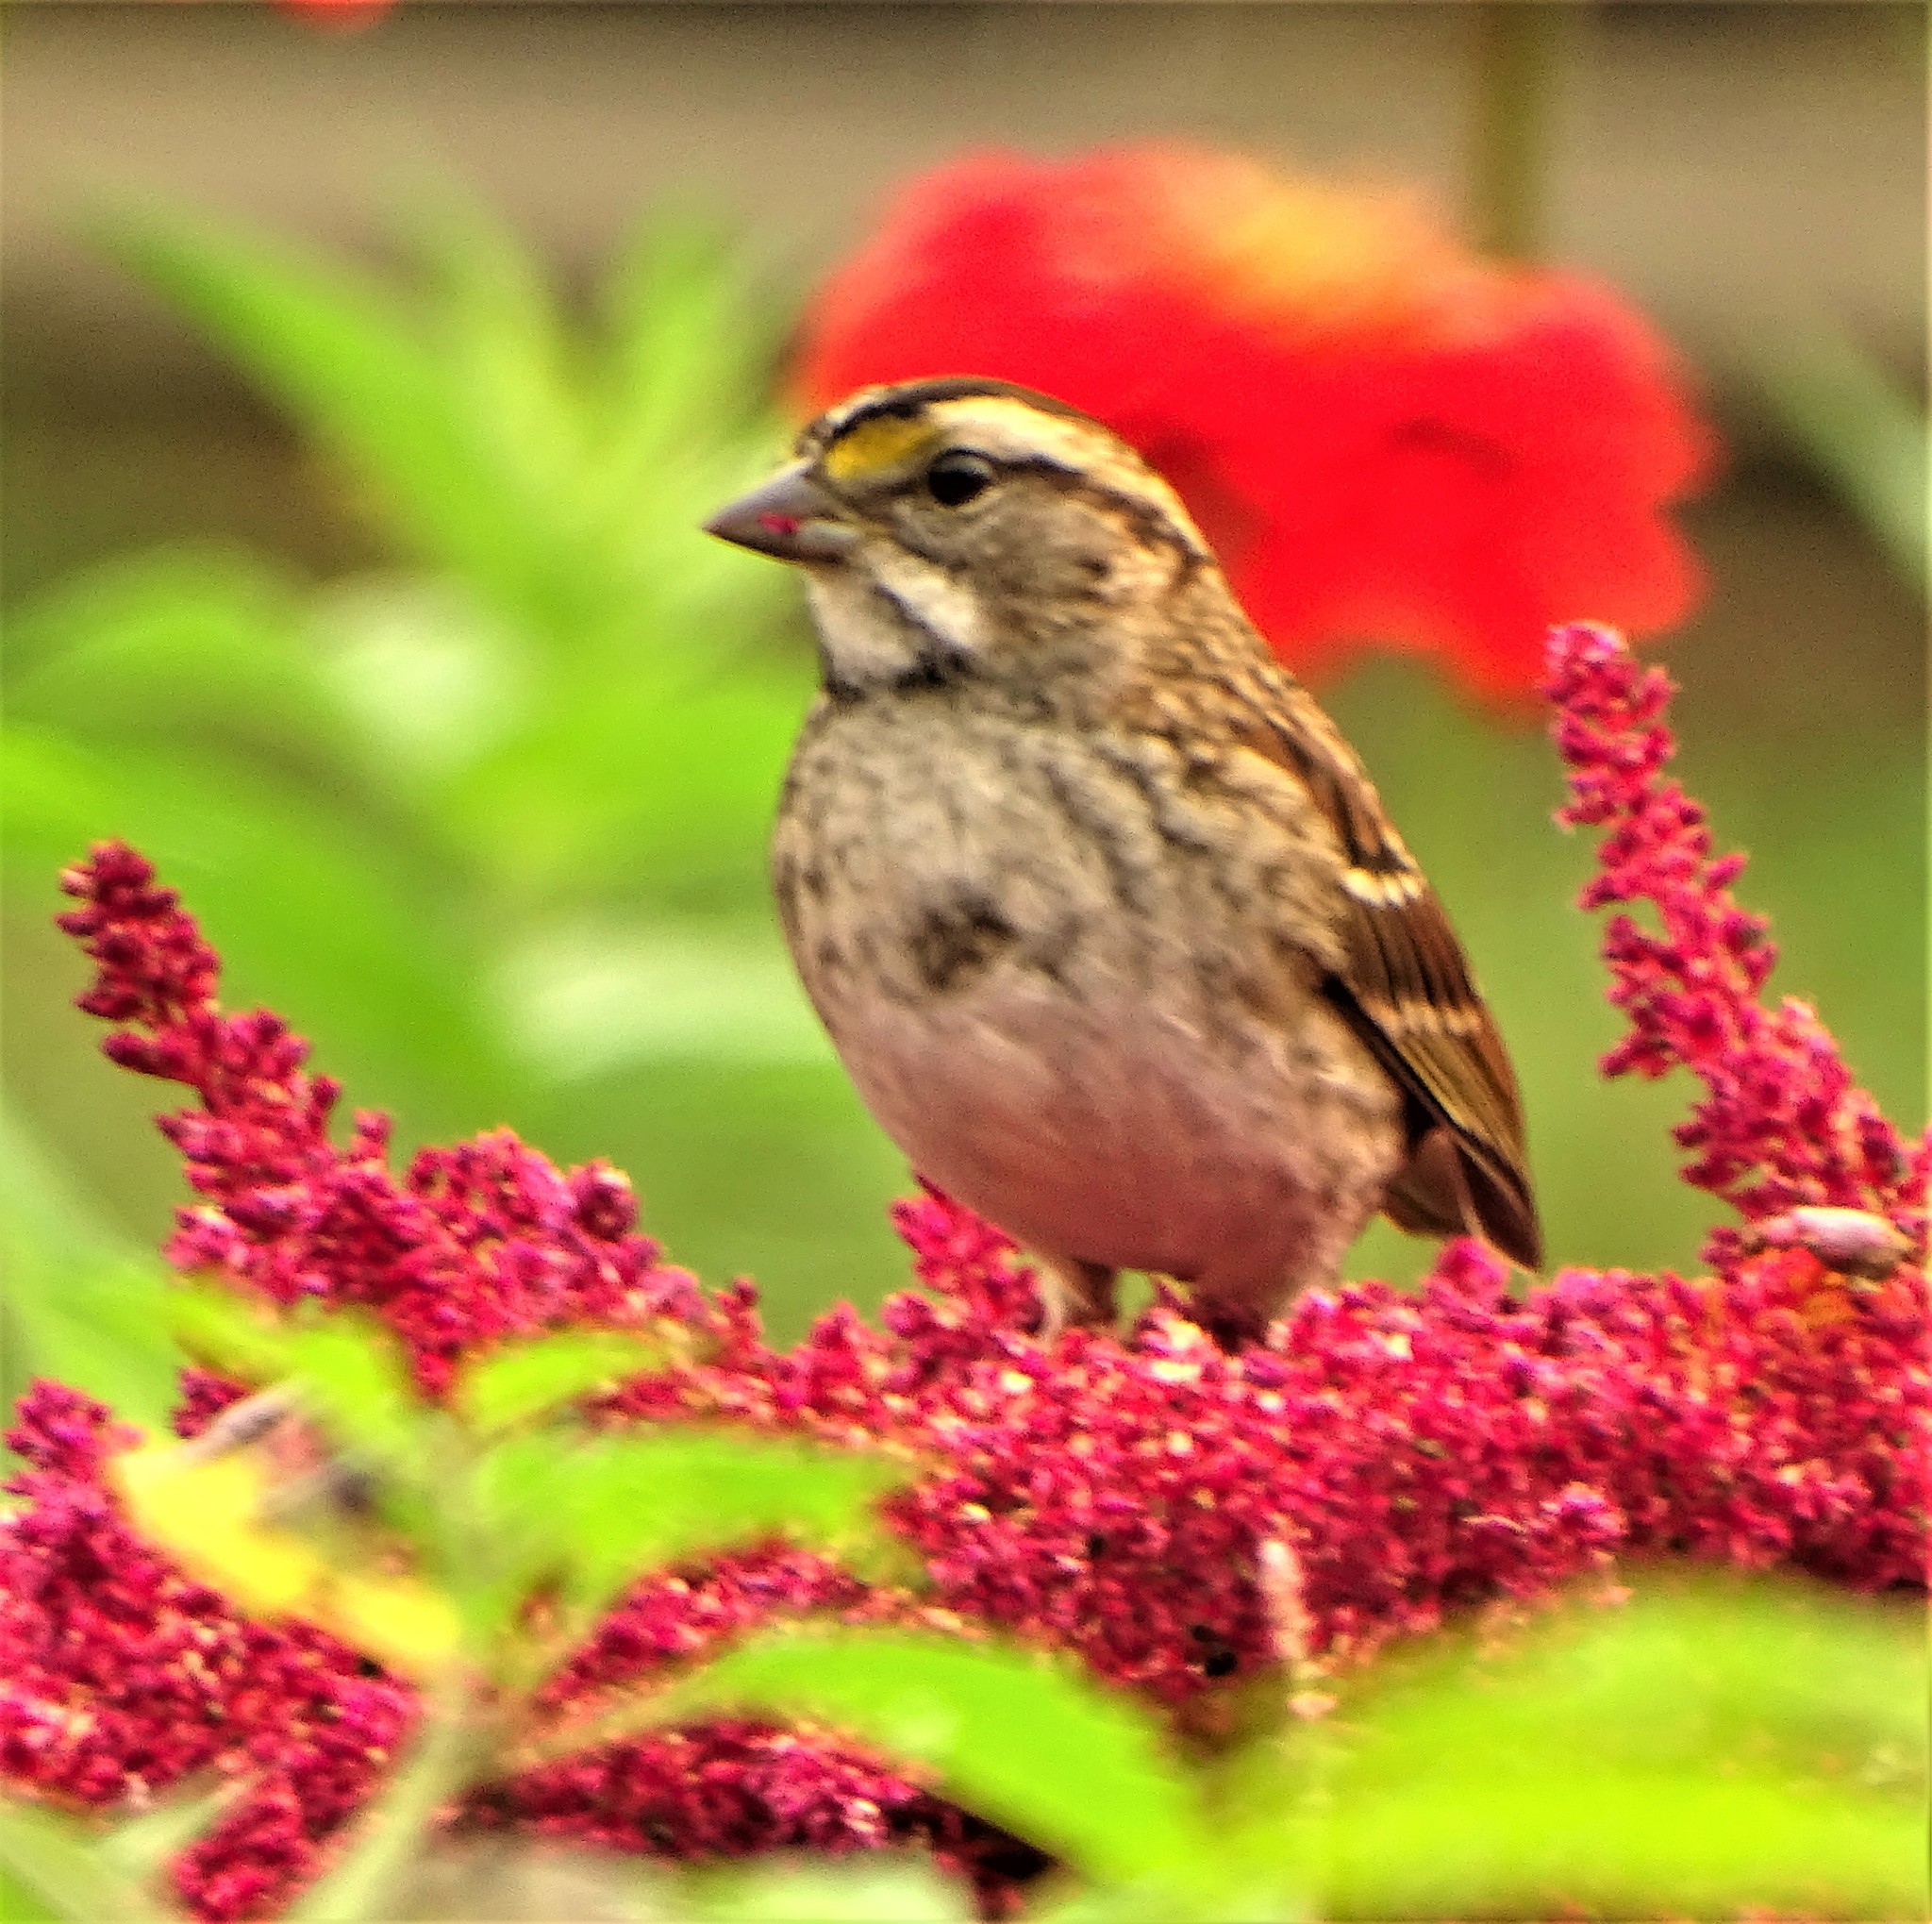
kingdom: Animalia
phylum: Chordata
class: Aves
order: Passeriformes
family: Passerellidae
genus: Zonotrichia
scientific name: Zonotrichia albicollis
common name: White-throated sparrow
